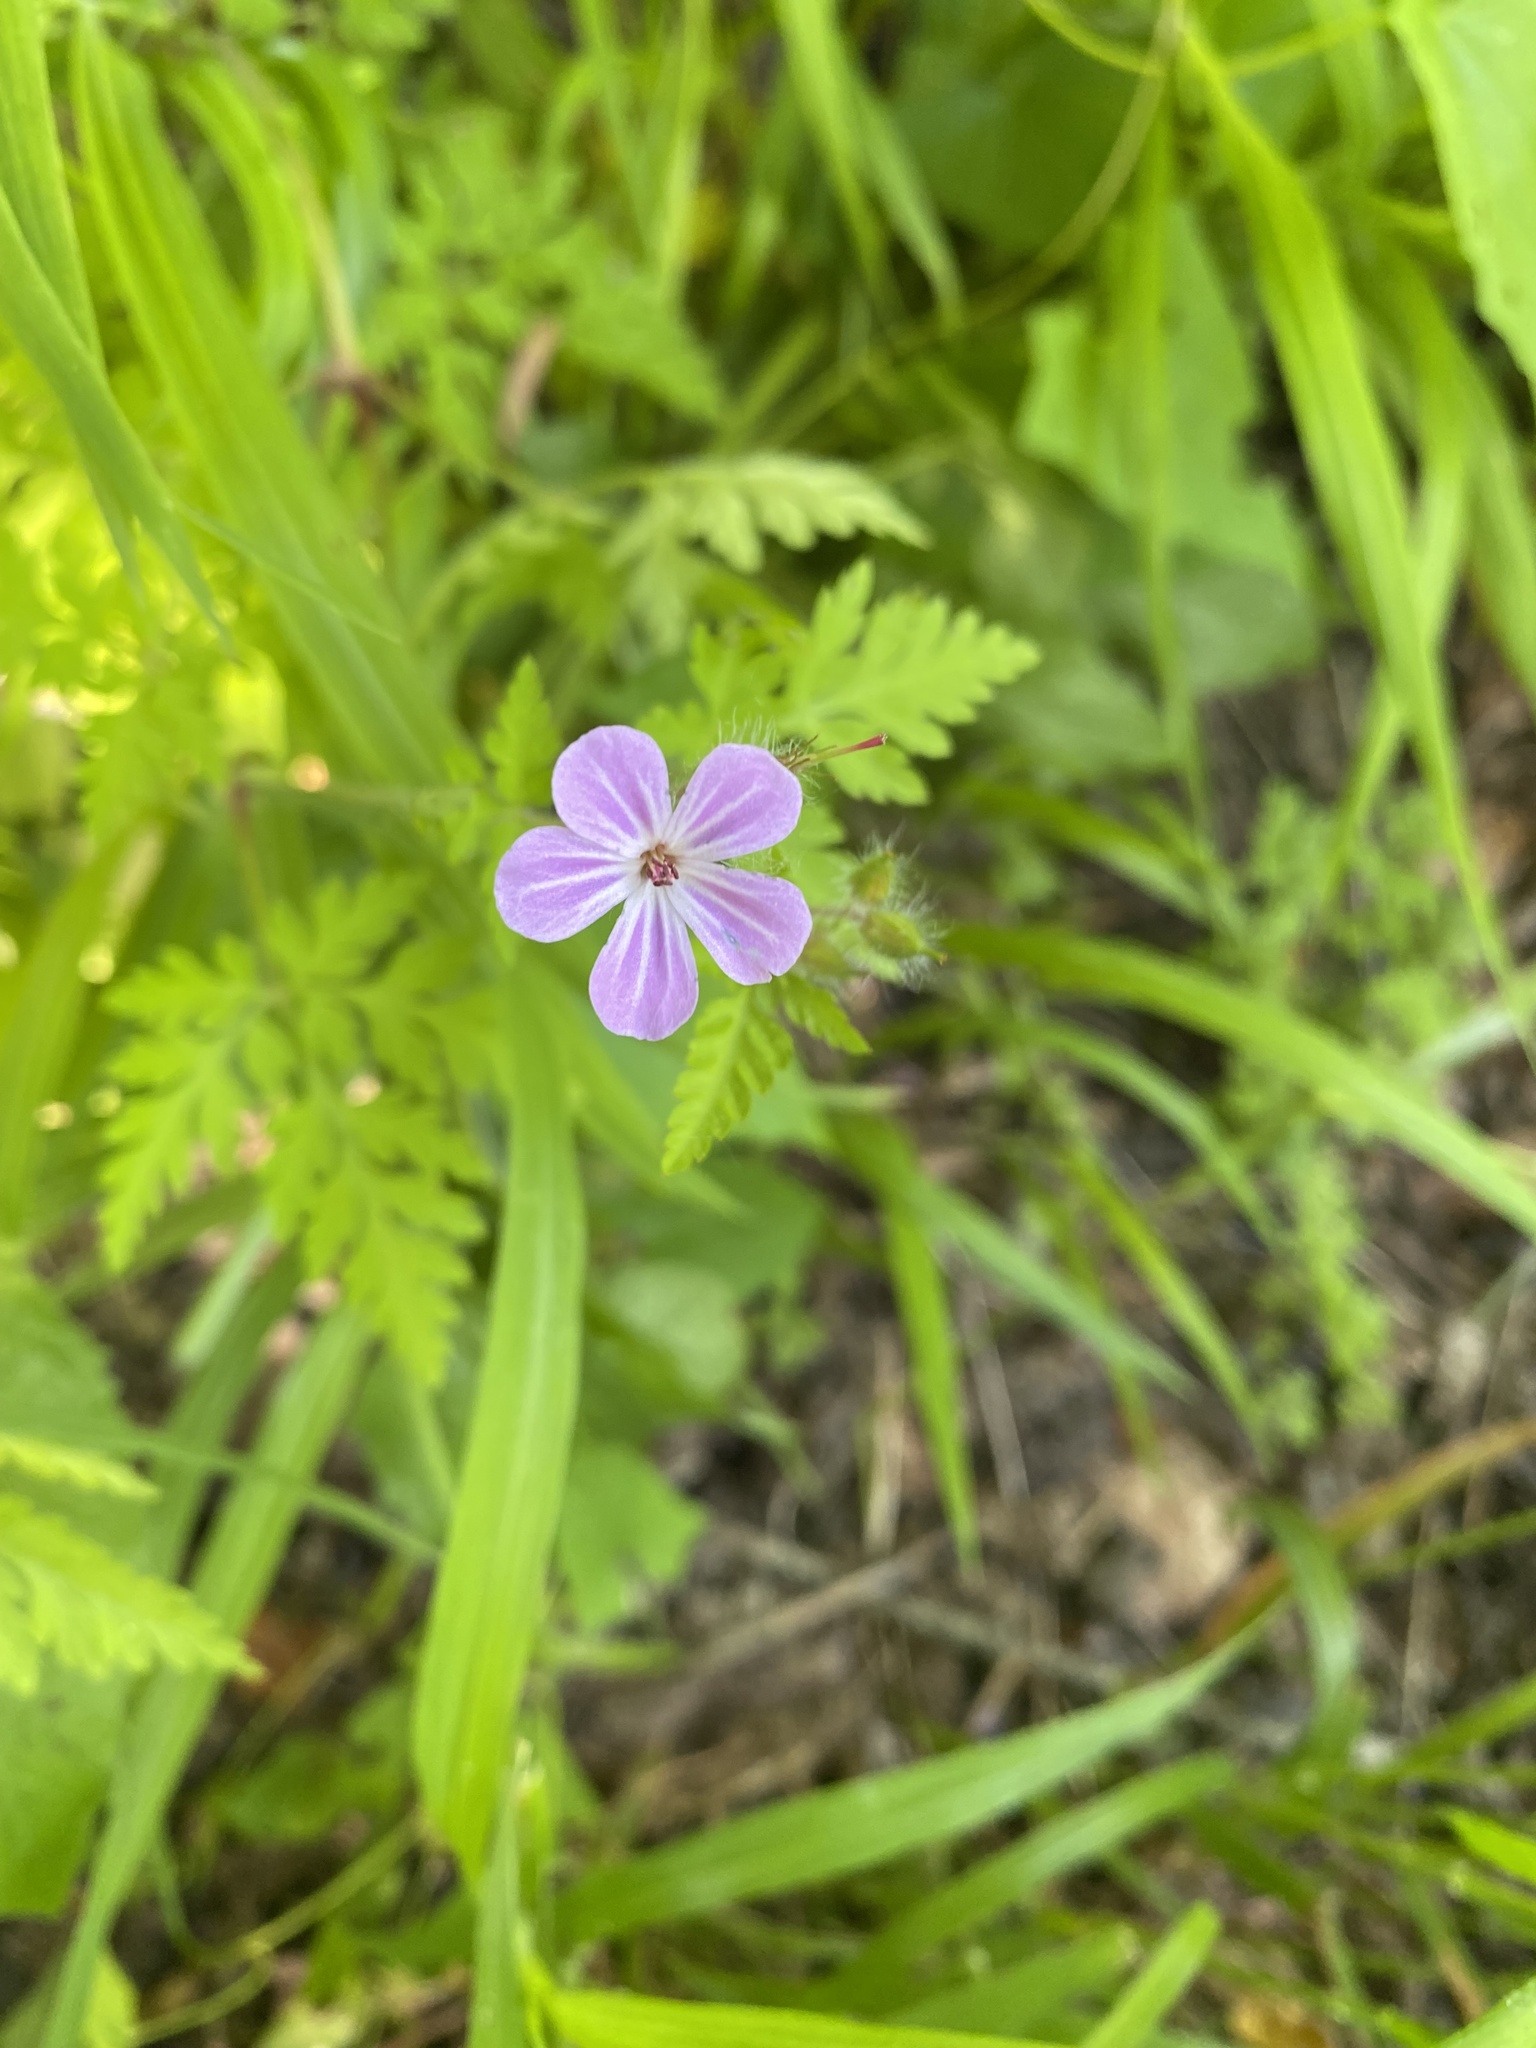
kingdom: Plantae
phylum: Tracheophyta
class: Magnoliopsida
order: Geraniales
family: Geraniaceae
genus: Geranium
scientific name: Geranium robertianum
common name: Herb-robert
